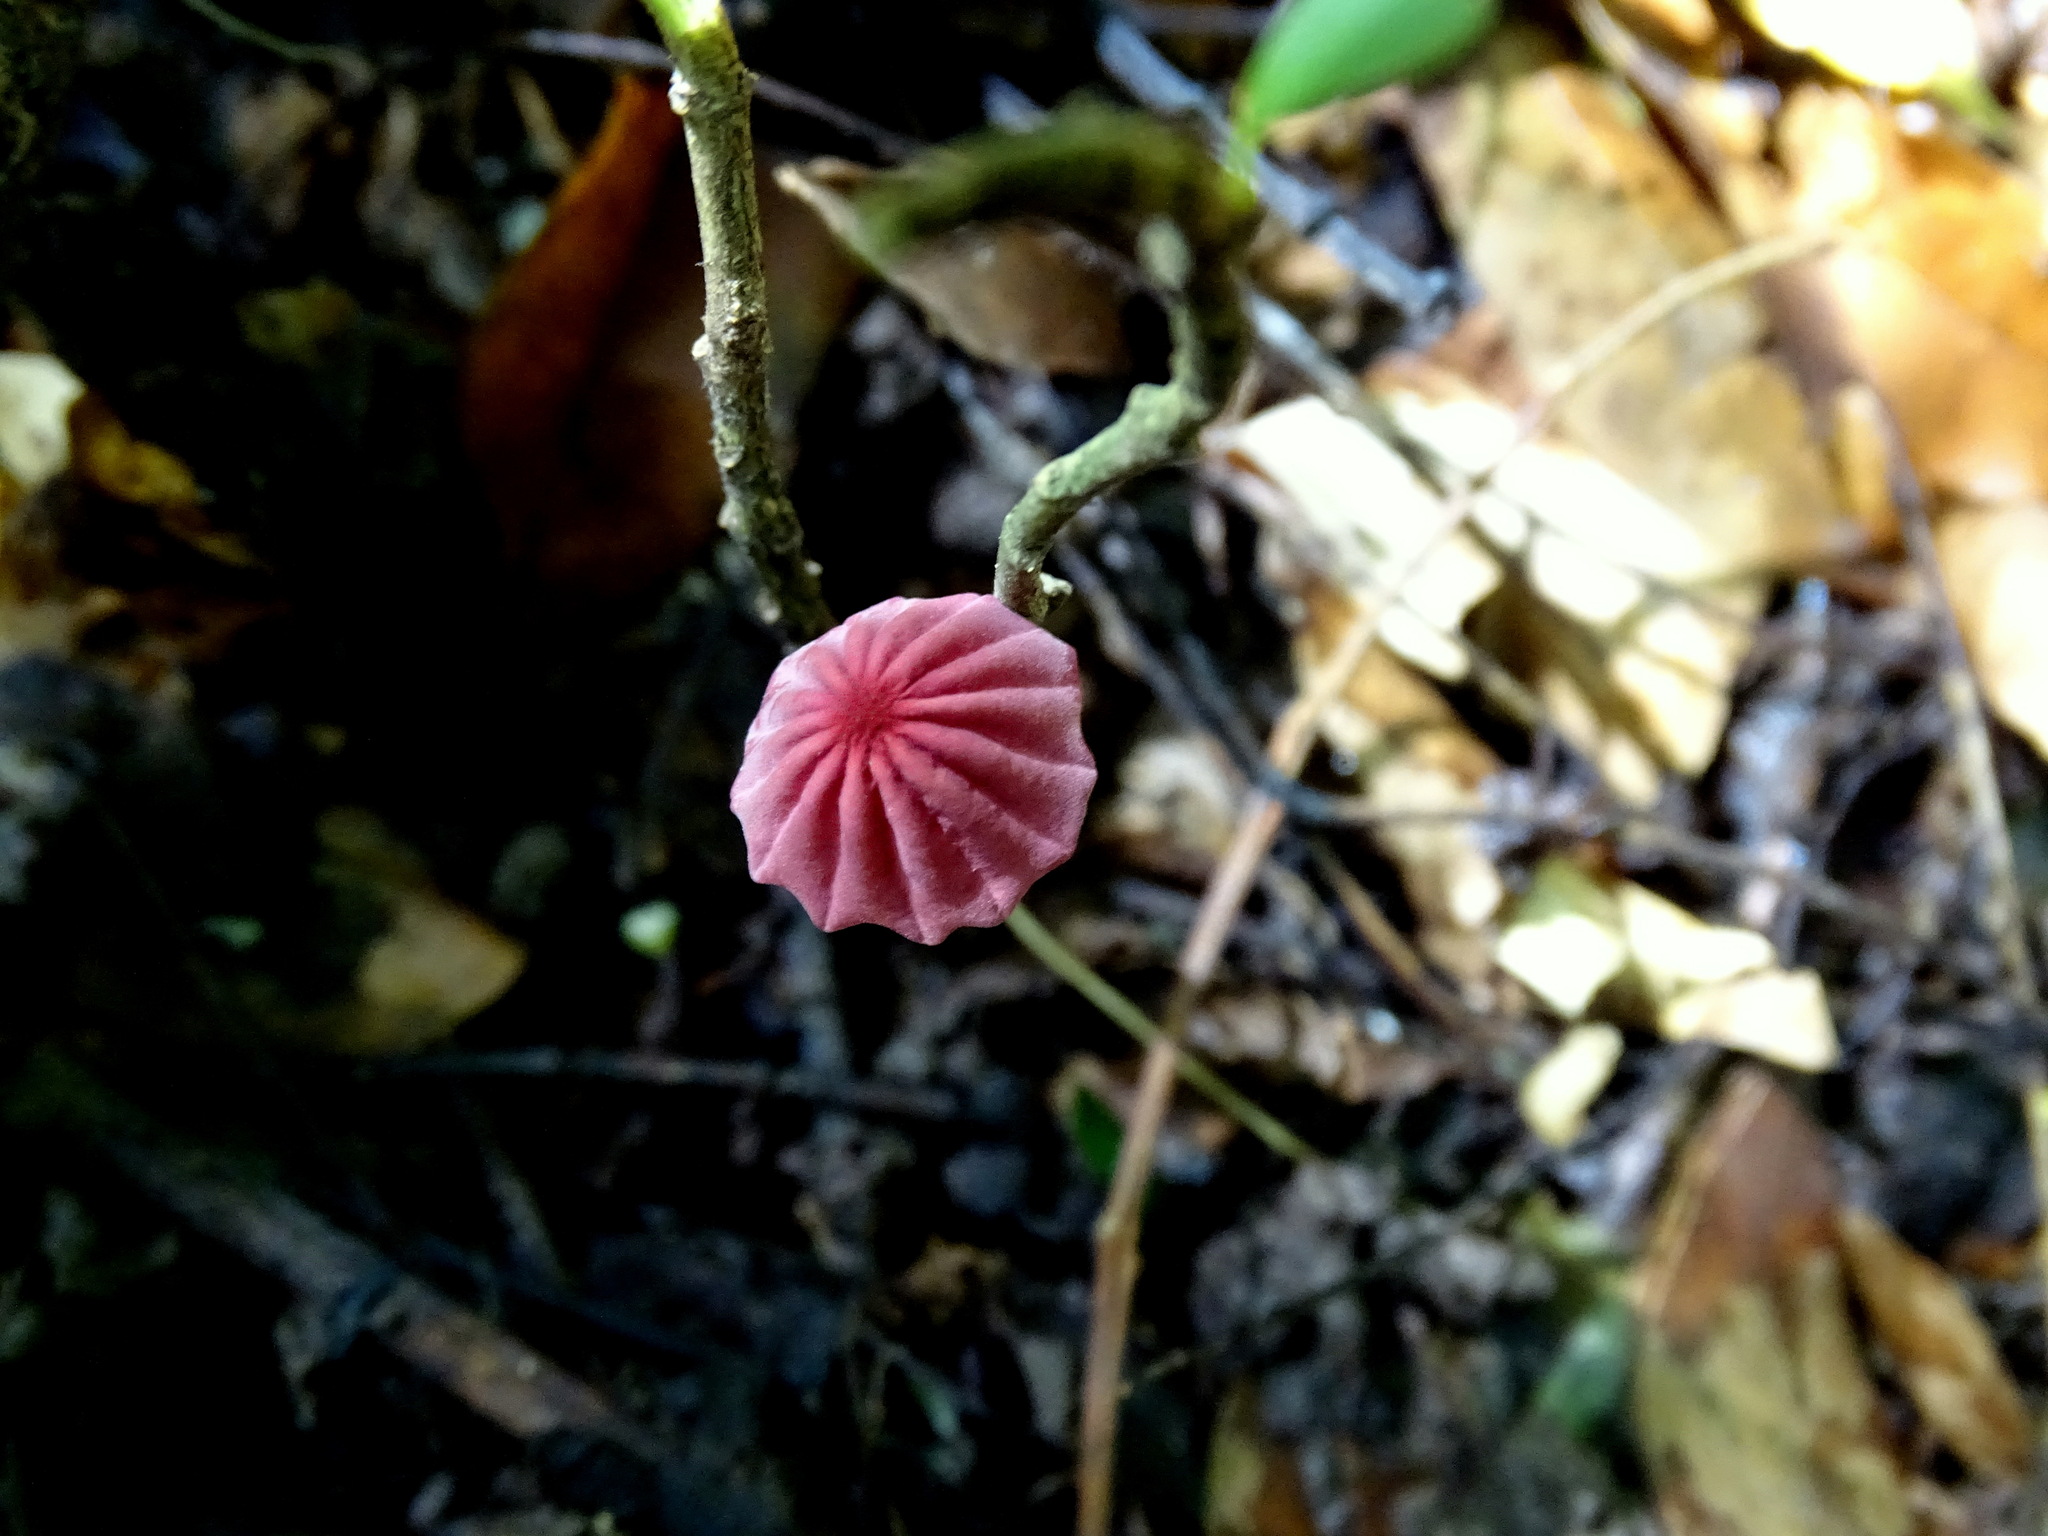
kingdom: Fungi
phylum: Basidiomycota
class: Agaricomycetes
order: Agaricales
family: Marasmiaceae
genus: Marasmius
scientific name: Marasmius haematocephalus
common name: Purple pinwheel
